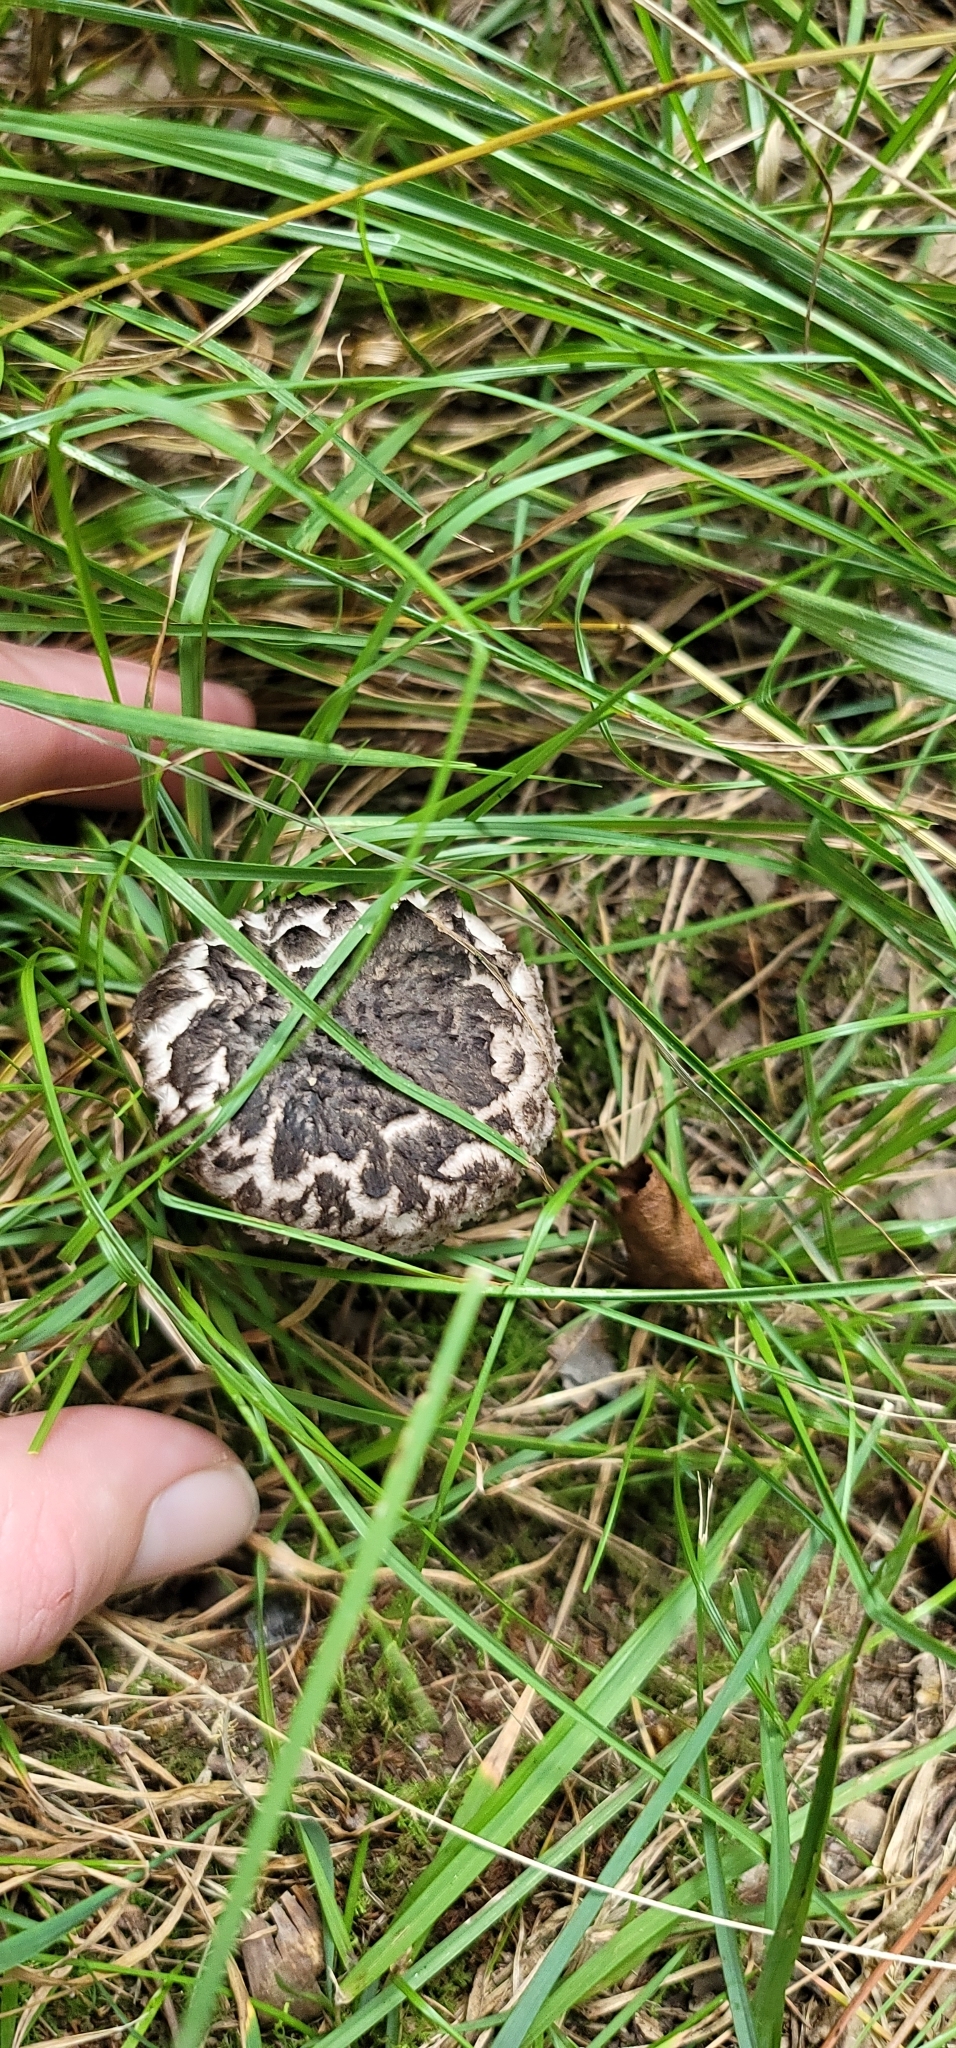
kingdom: Fungi
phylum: Basidiomycota
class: Agaricomycetes
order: Boletales
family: Boletaceae
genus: Strobilomyces
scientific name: Strobilomyces strobilaceus
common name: Old man of the woods
